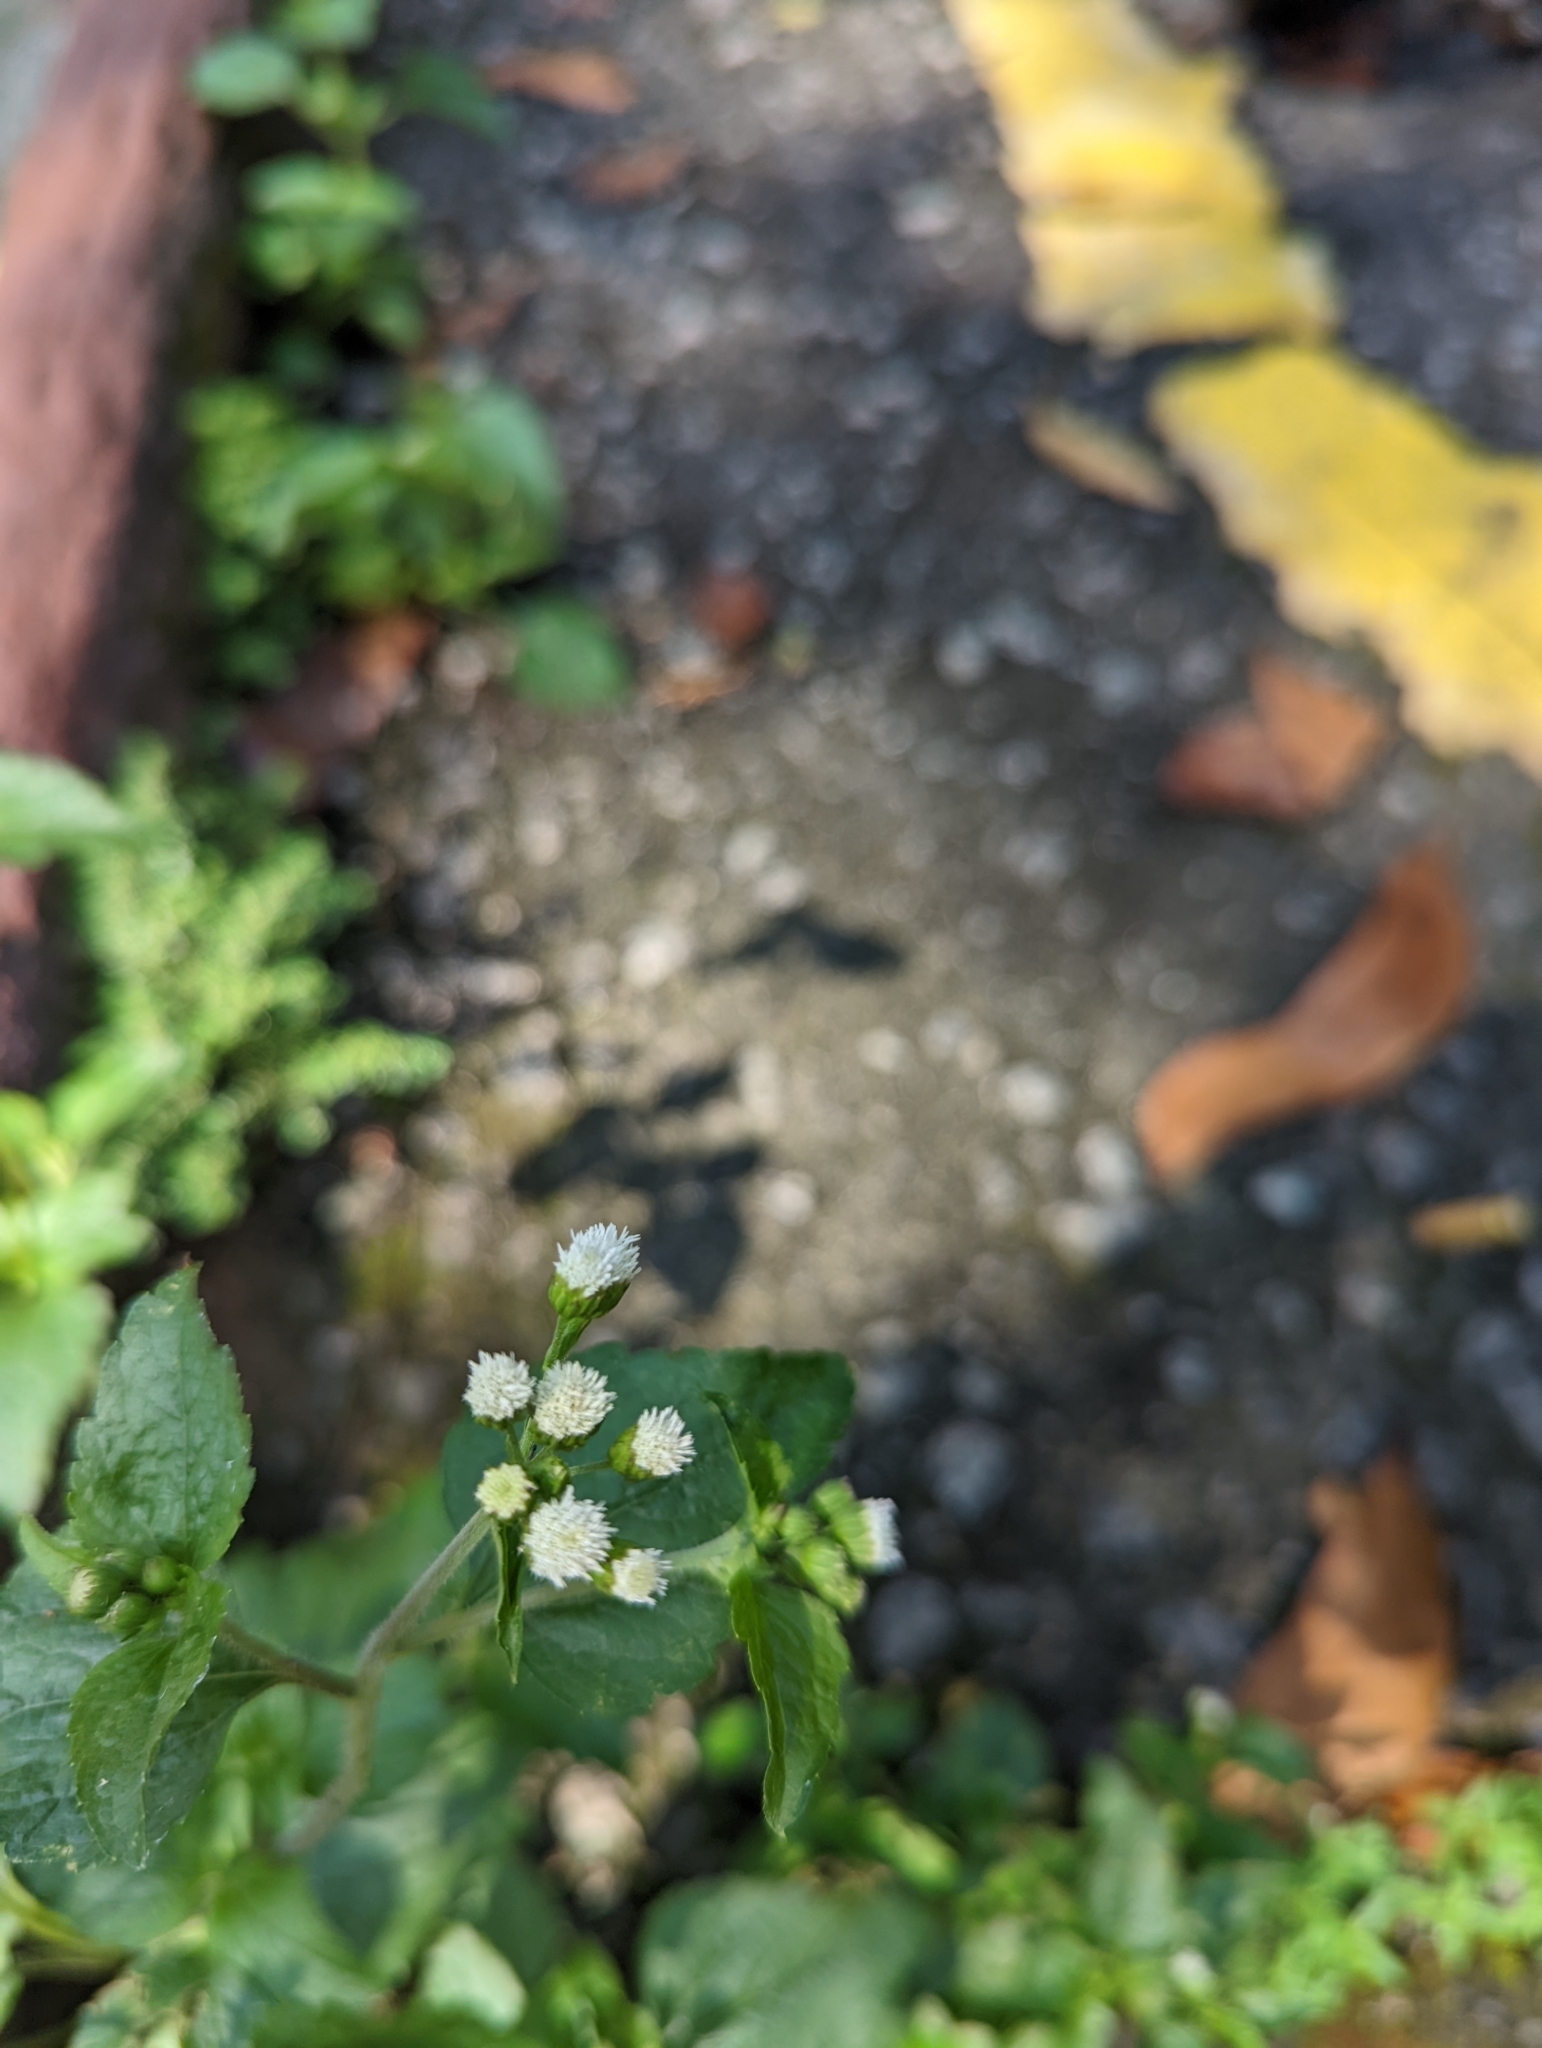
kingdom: Plantae
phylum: Tracheophyta
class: Magnoliopsida
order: Asterales
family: Asteraceae
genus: Ageratum
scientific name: Ageratum conyzoides
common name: Tropical whiteweed
